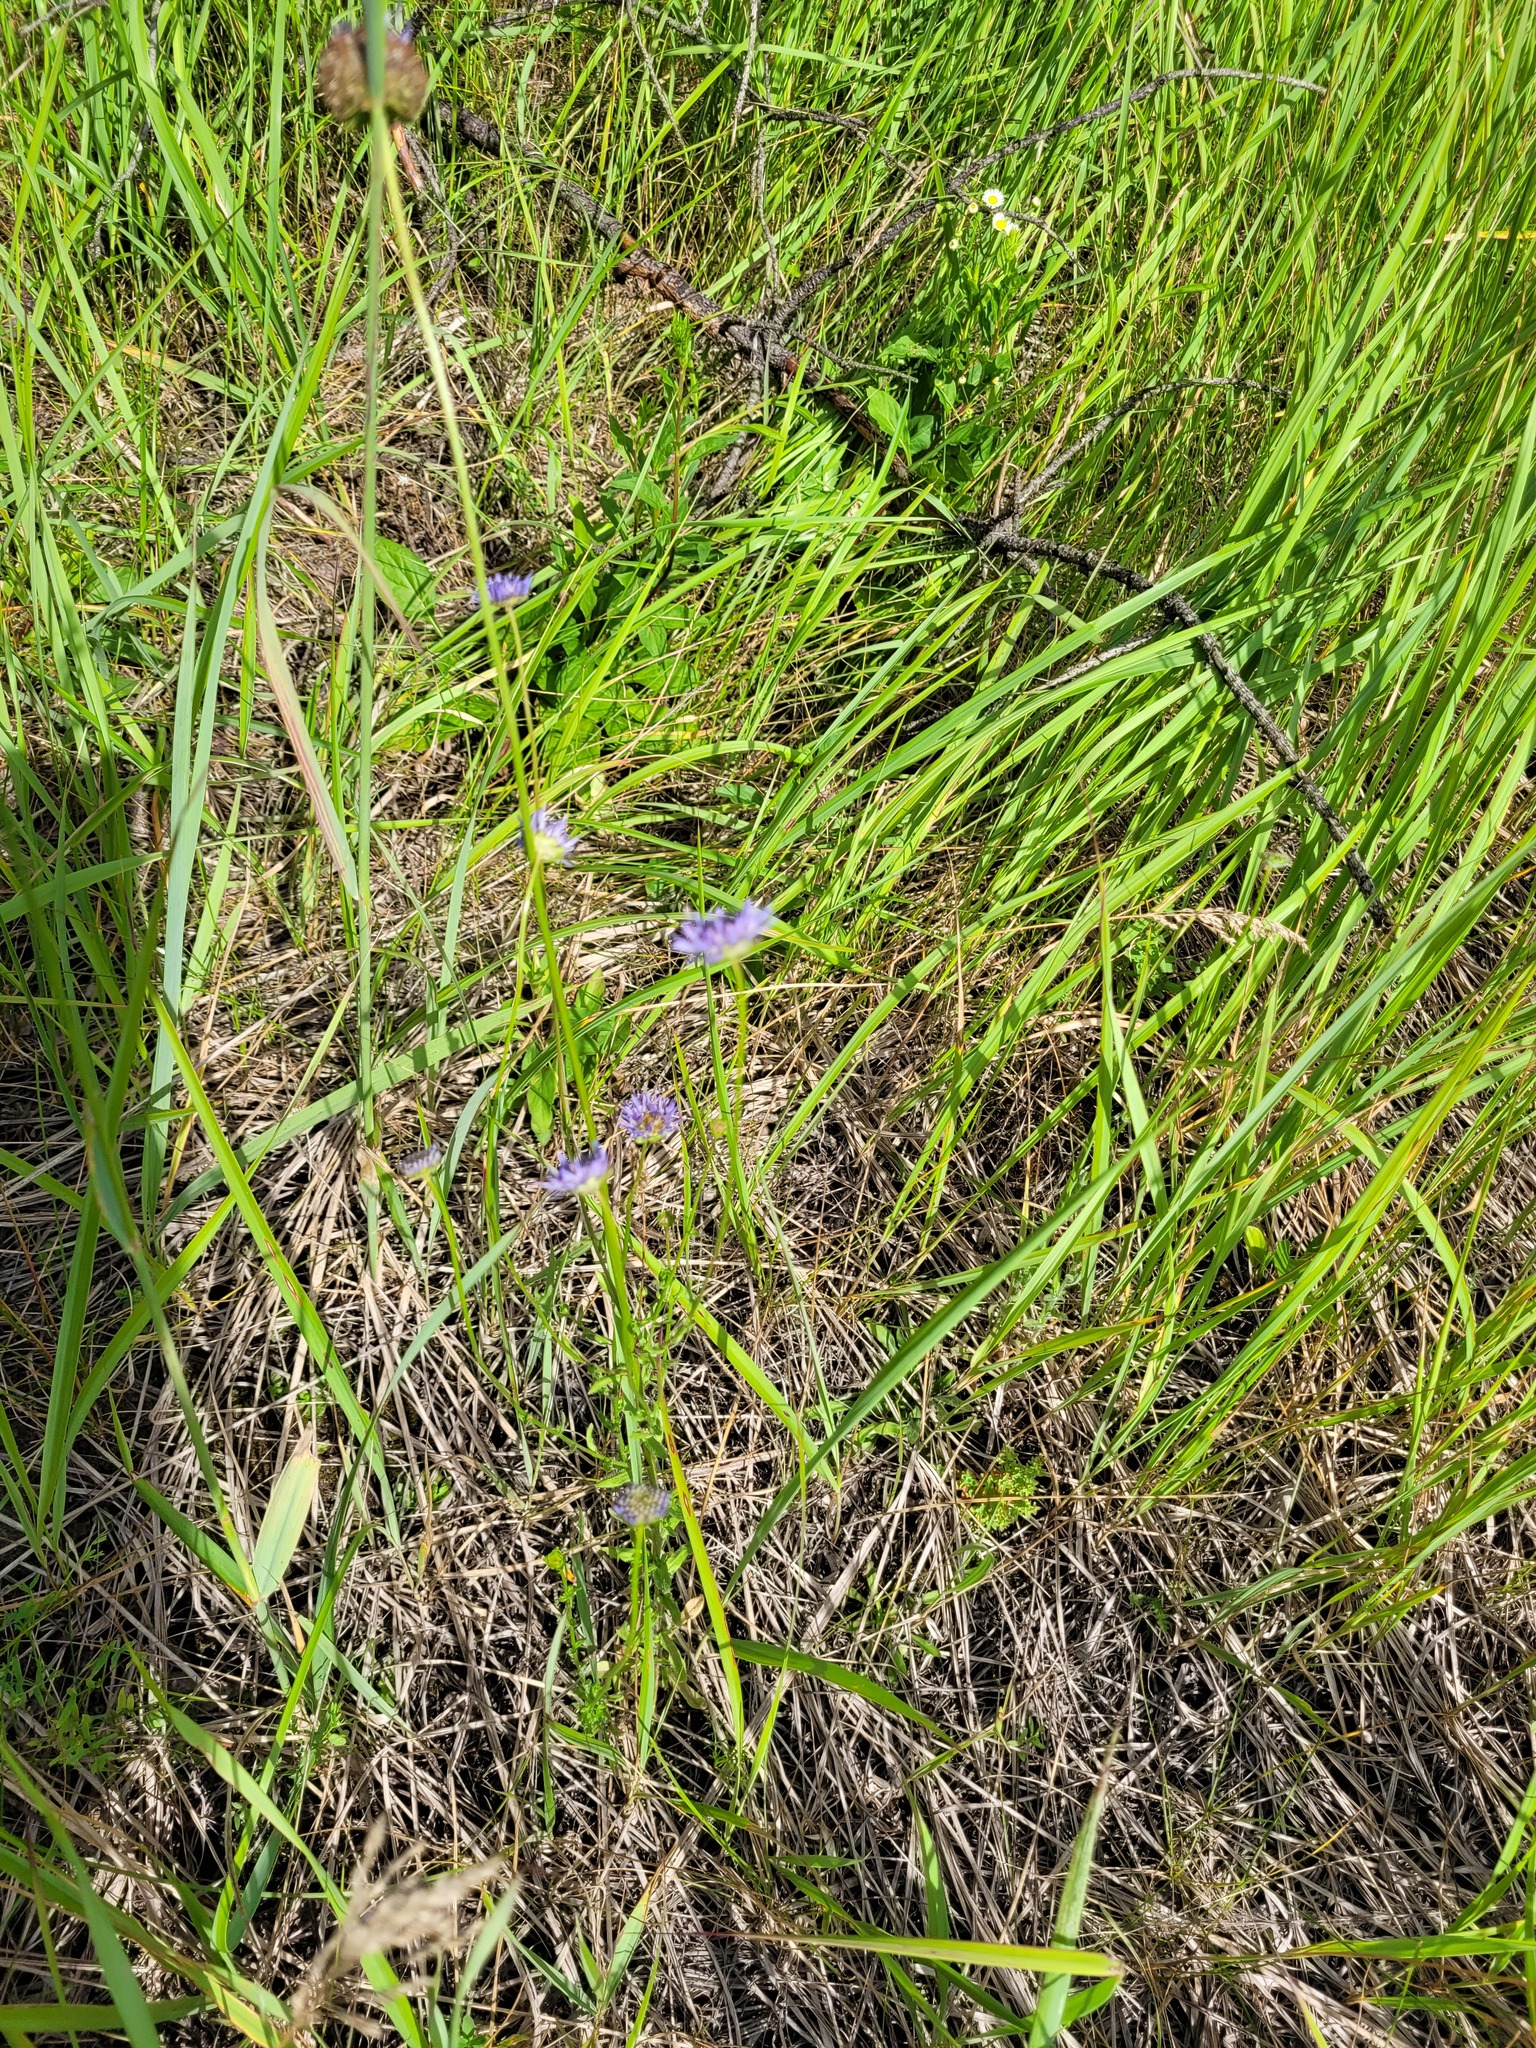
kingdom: Plantae
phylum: Tracheophyta
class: Magnoliopsida
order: Asterales
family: Campanulaceae
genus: Jasione
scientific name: Jasione montana
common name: Sheep's-bit
